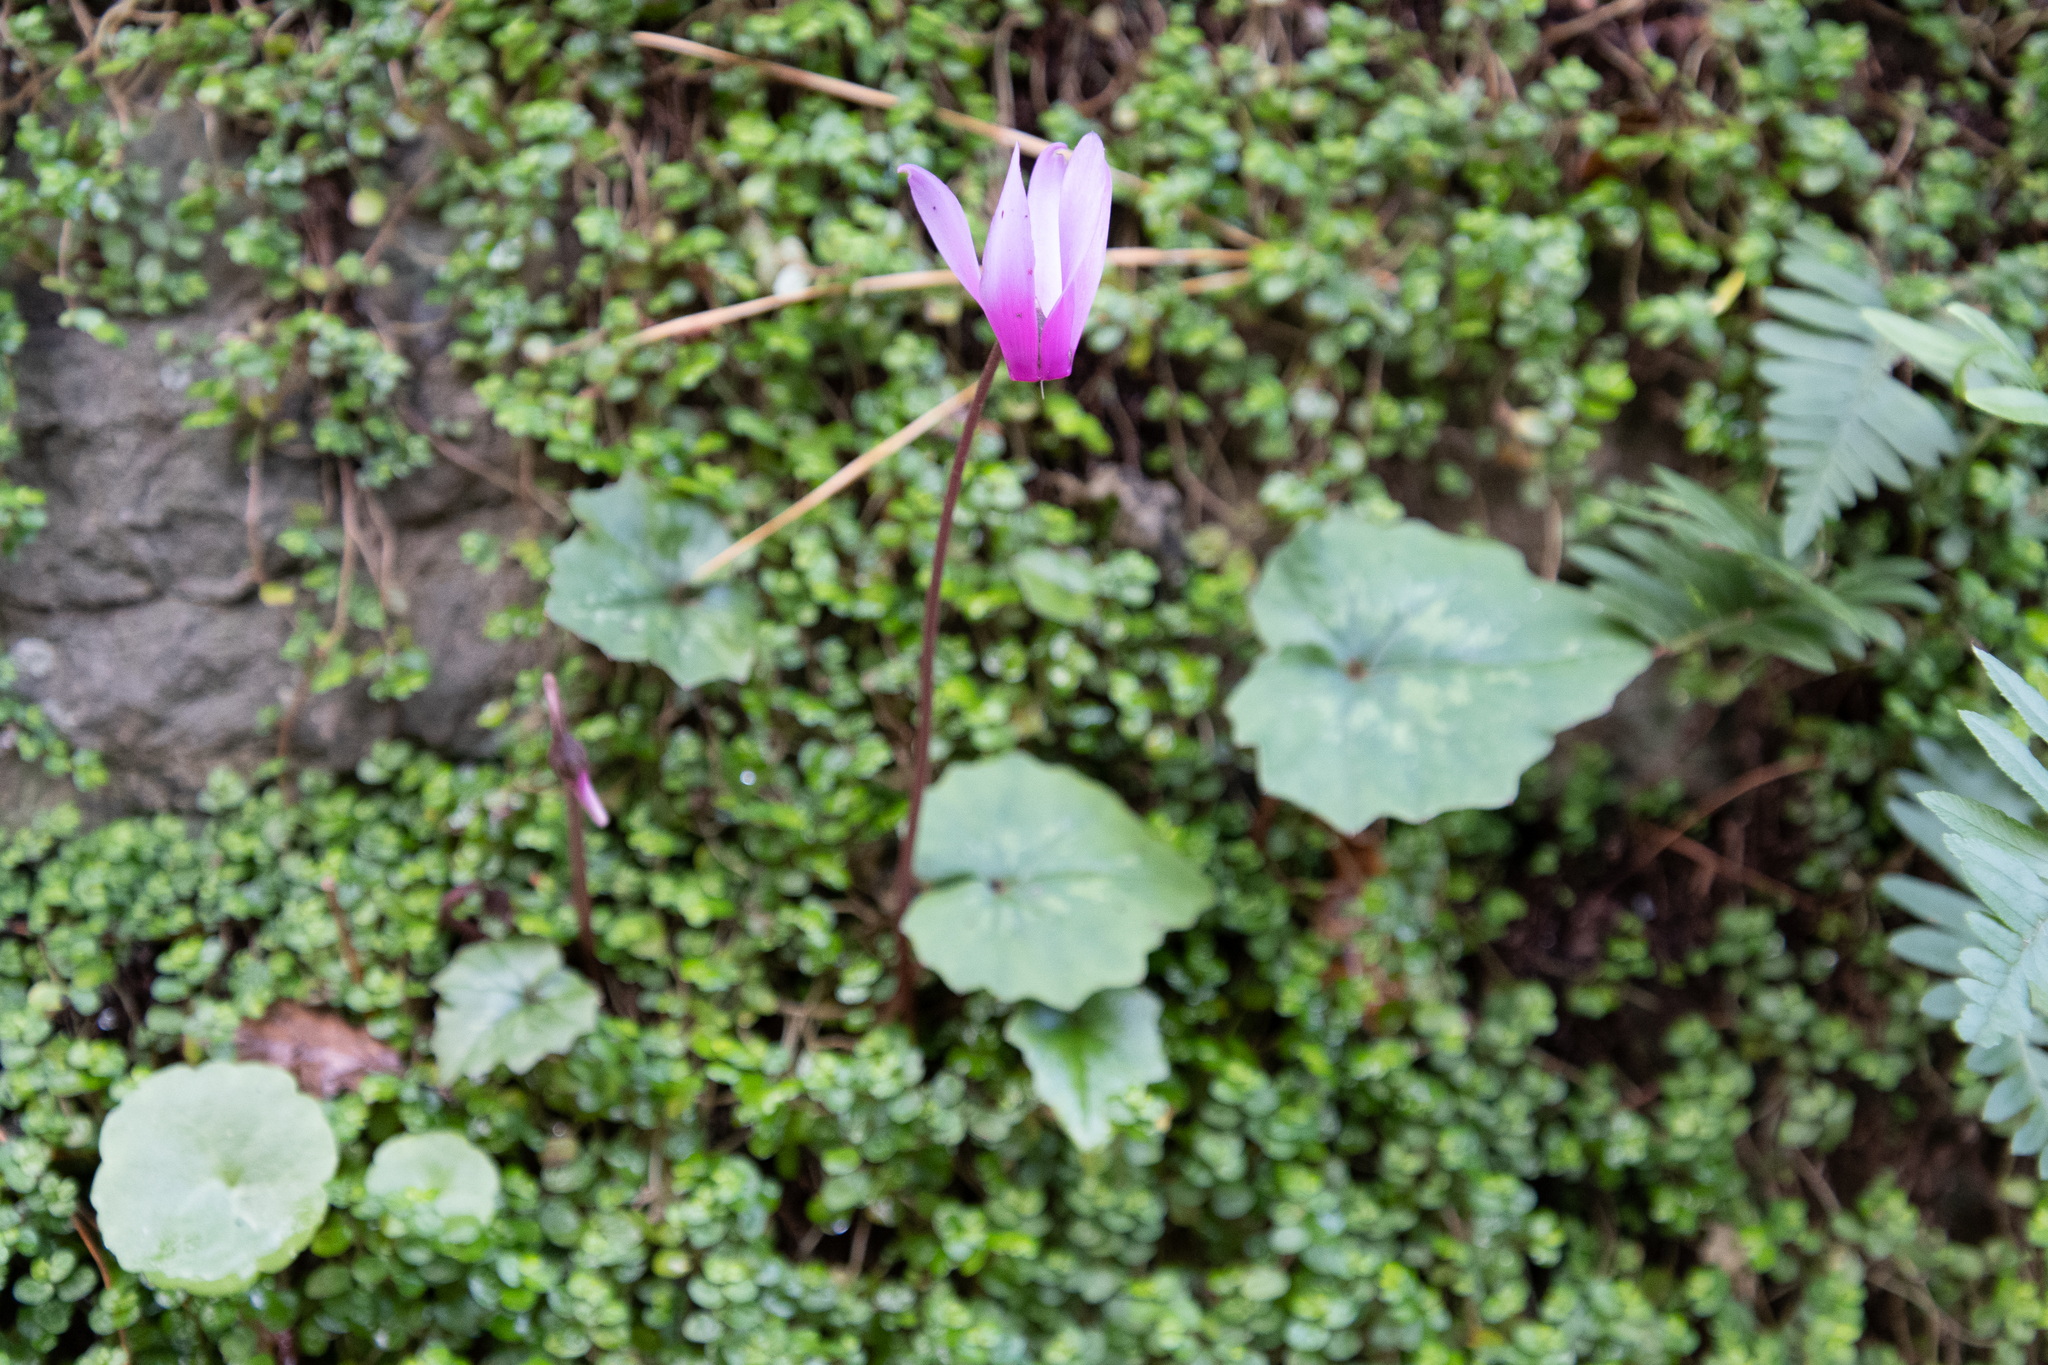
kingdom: Plantae
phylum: Tracheophyta
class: Magnoliopsida
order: Ericales
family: Primulaceae
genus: Cyclamen
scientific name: Cyclamen repandum
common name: Spring sowbread
